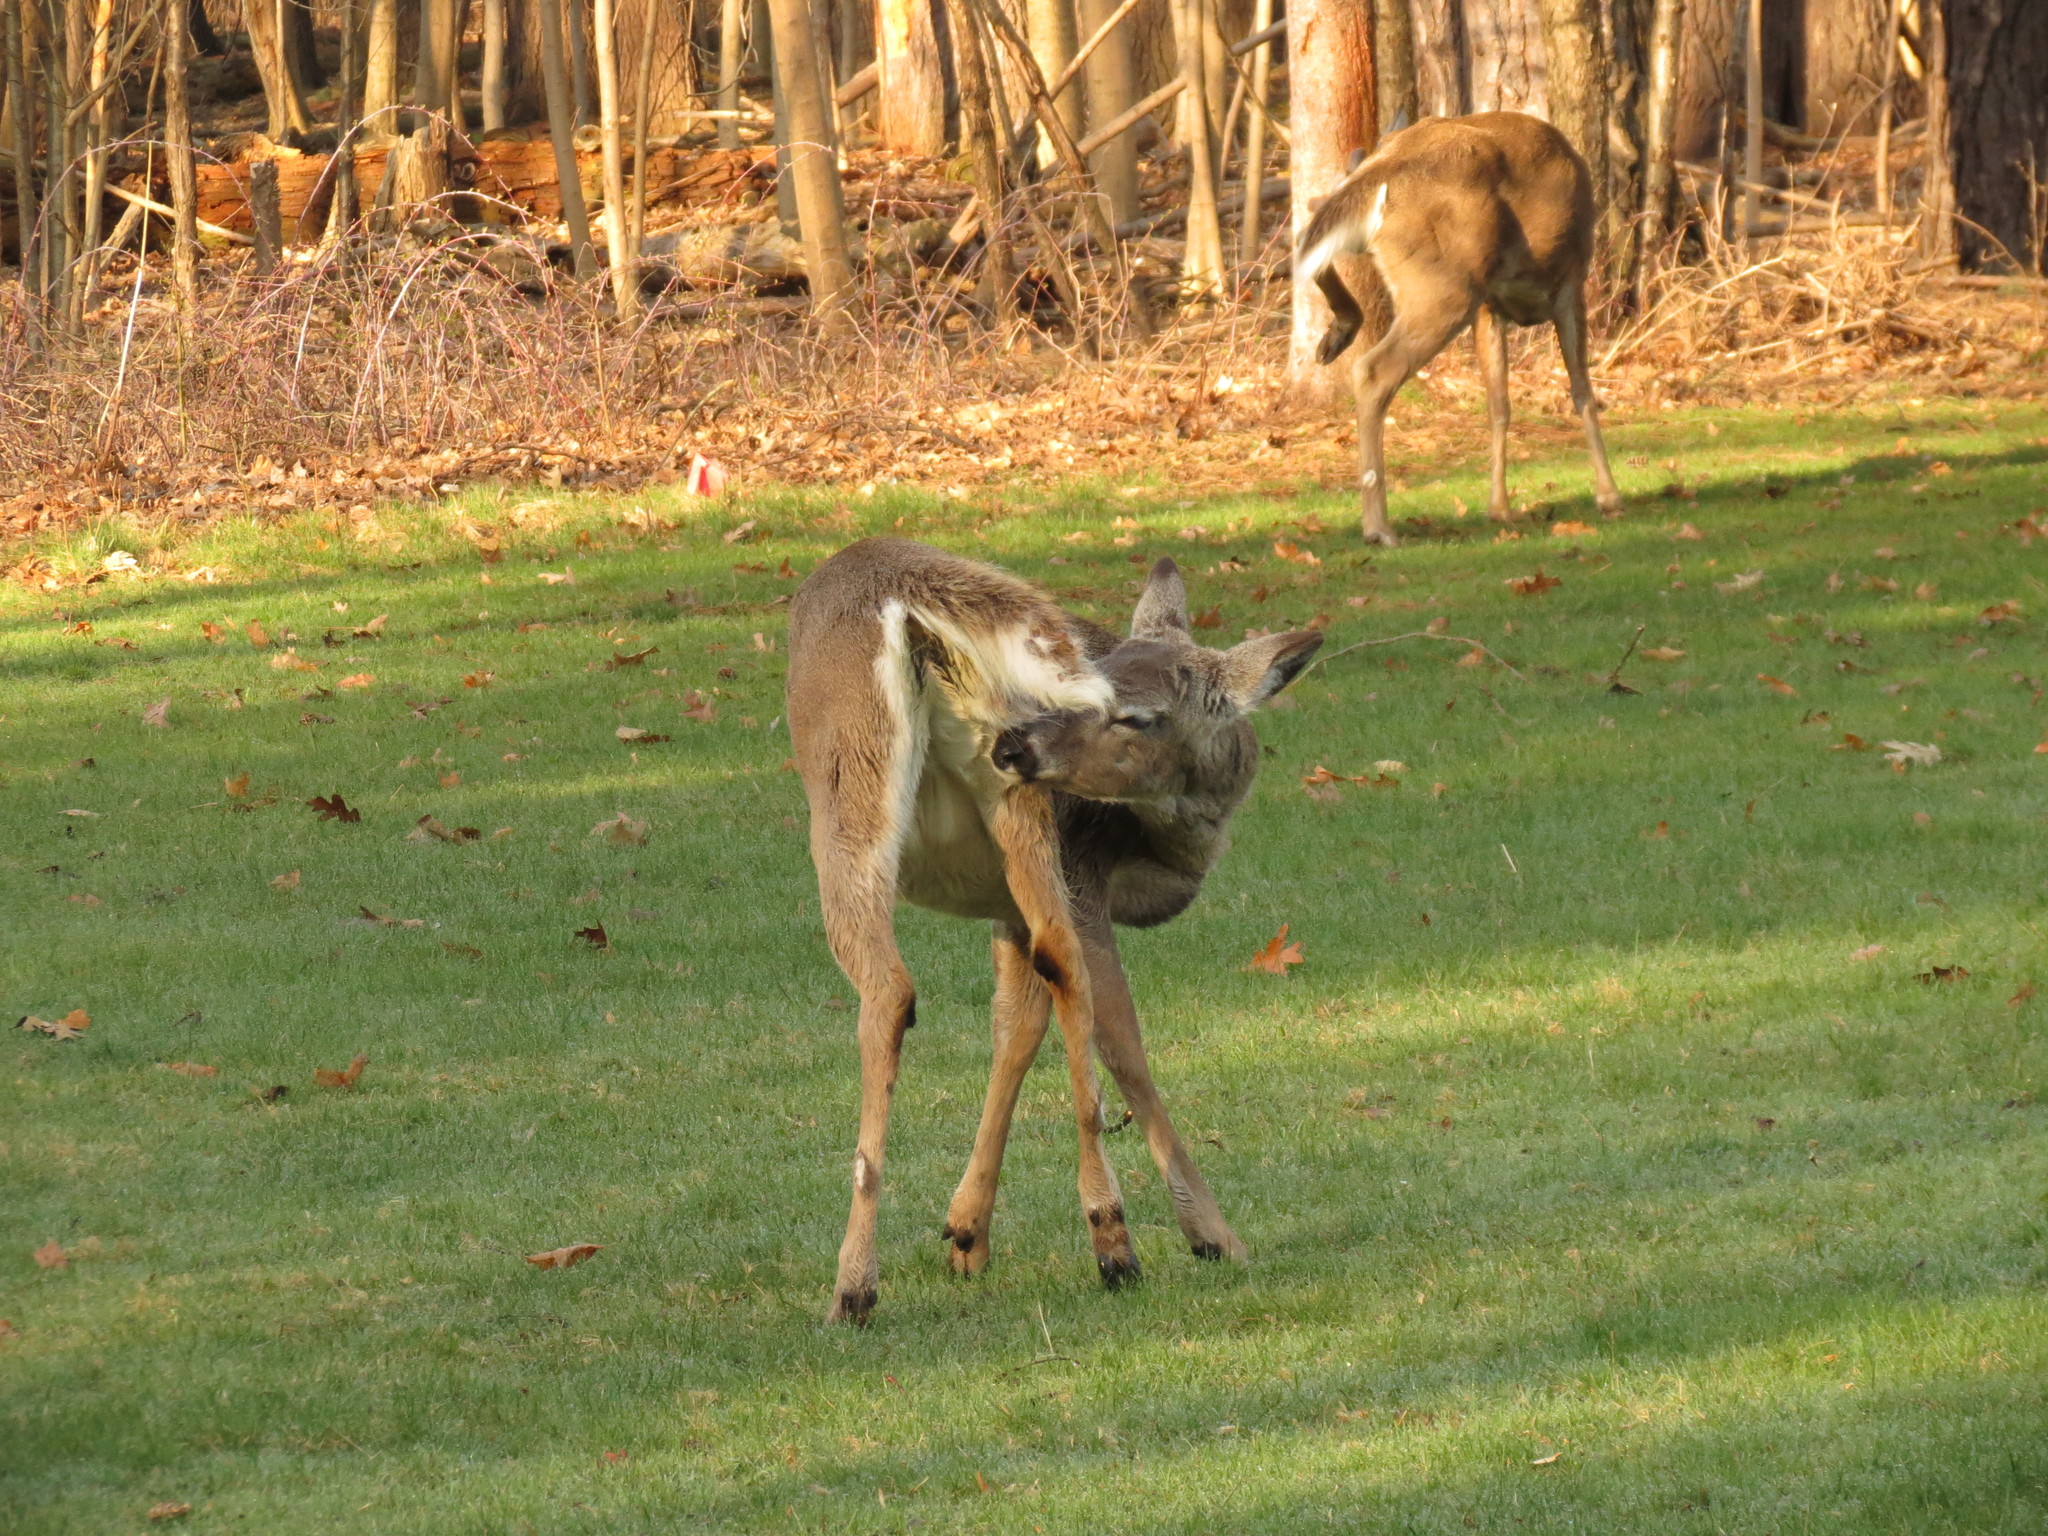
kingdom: Animalia
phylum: Chordata
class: Mammalia
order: Artiodactyla
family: Cervidae
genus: Odocoileus
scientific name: Odocoileus virginianus
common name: White-tailed deer
